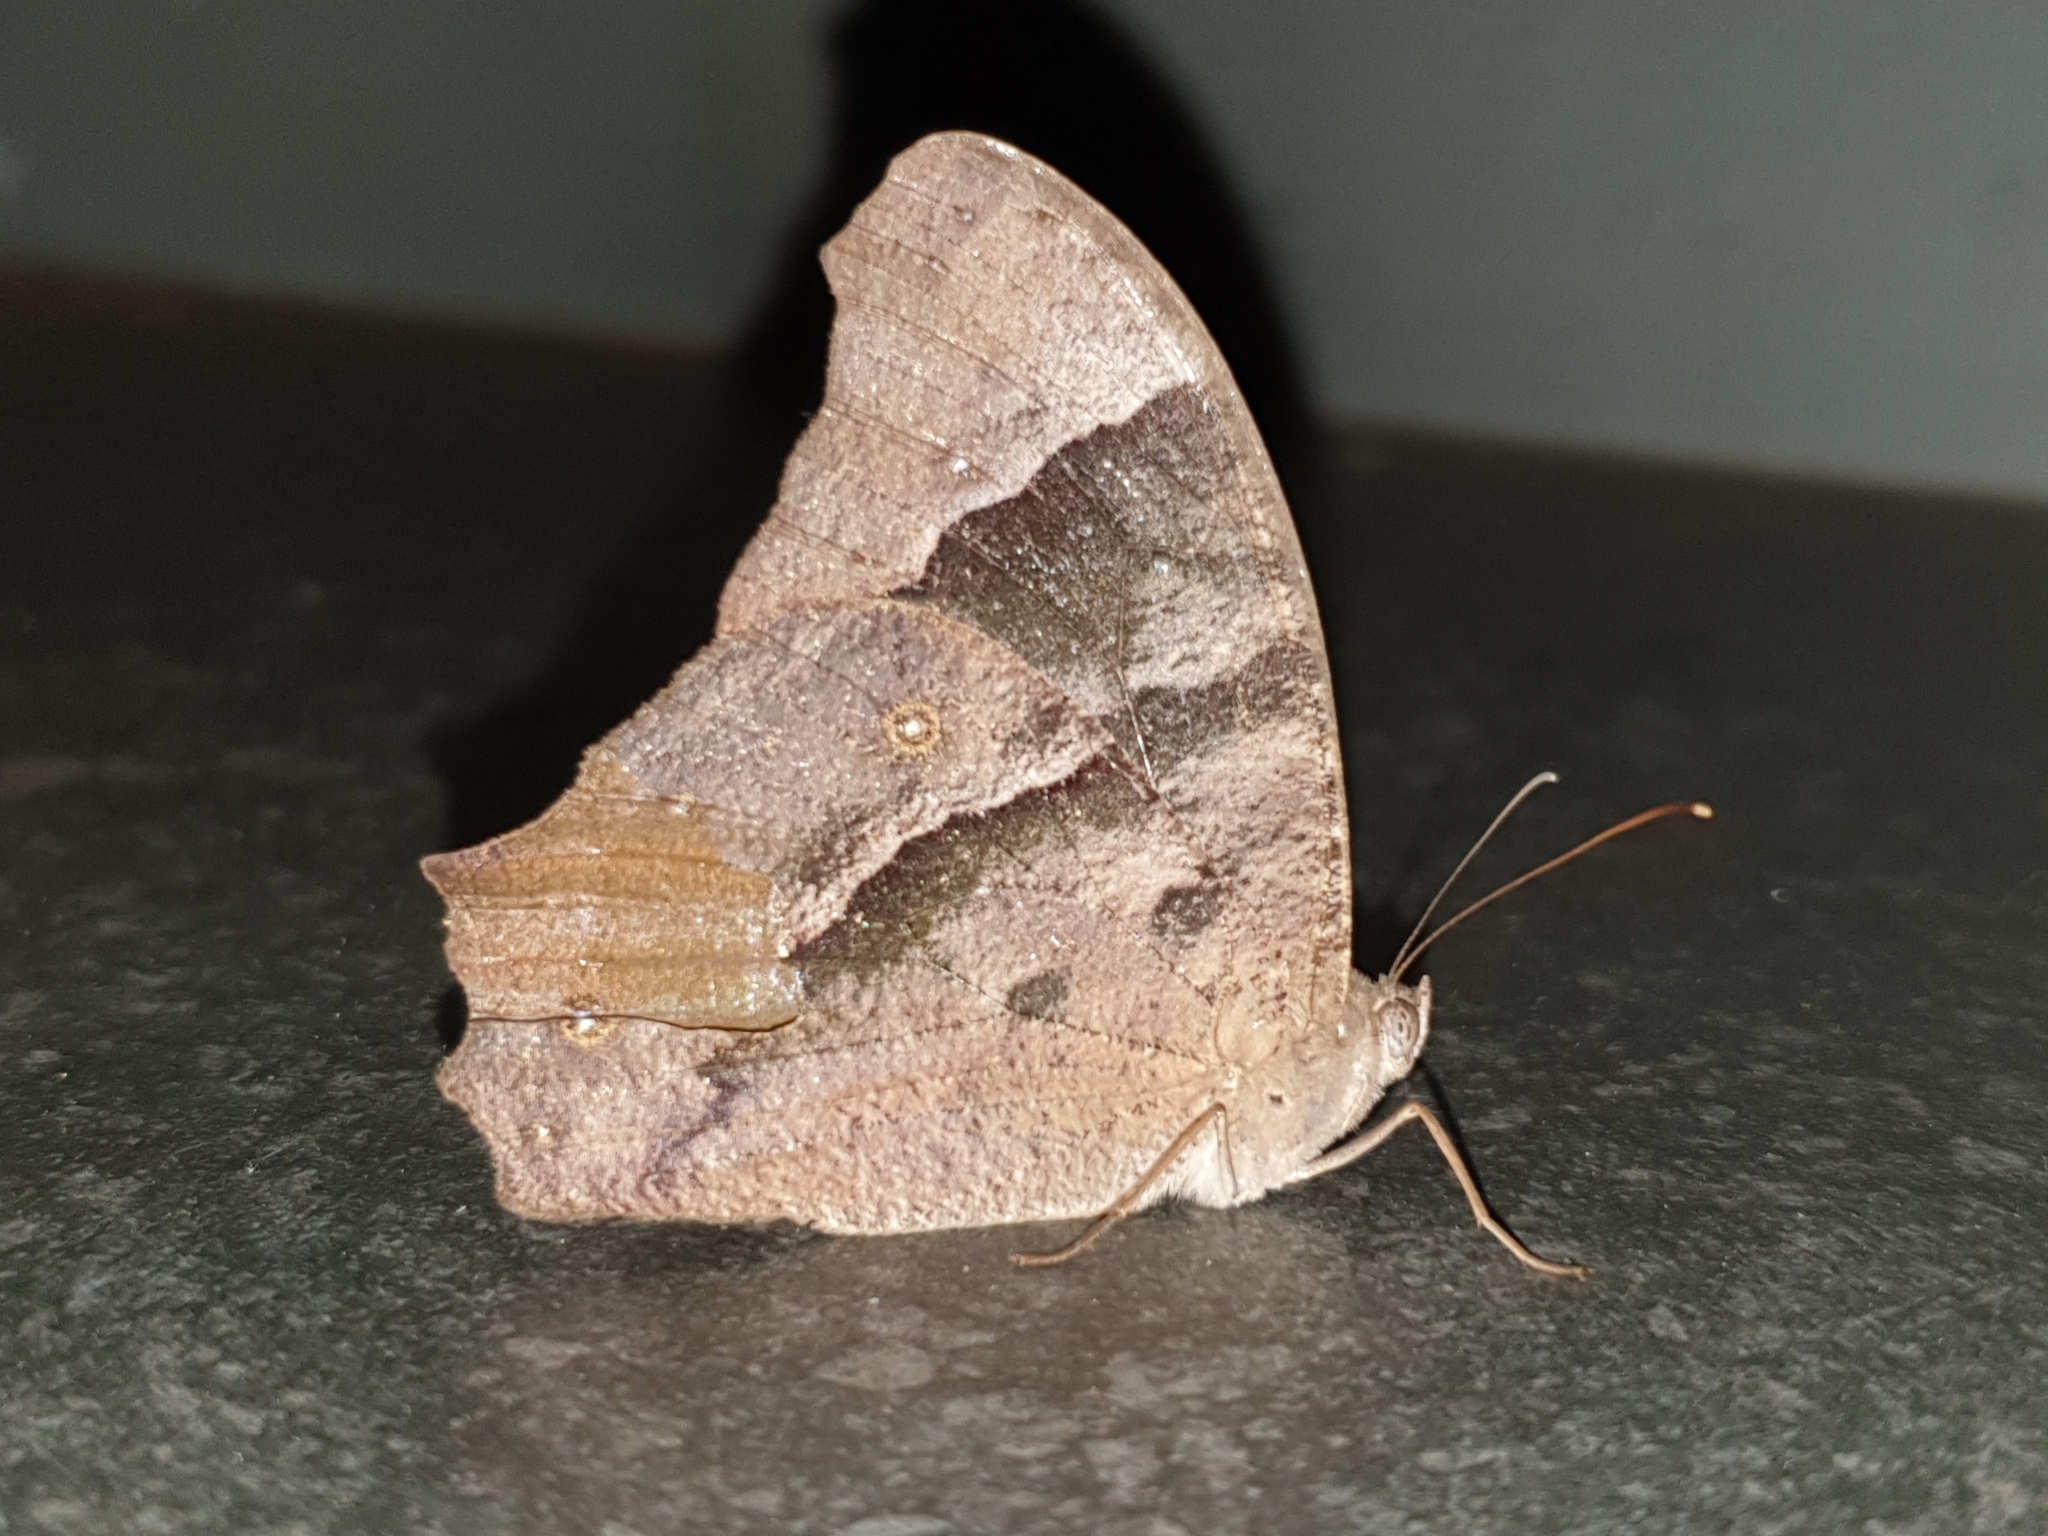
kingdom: Animalia
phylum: Arthropoda
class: Insecta
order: Lepidoptera
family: Nymphalidae
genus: Melanitis
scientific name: Melanitis leda
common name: Twilight brown
